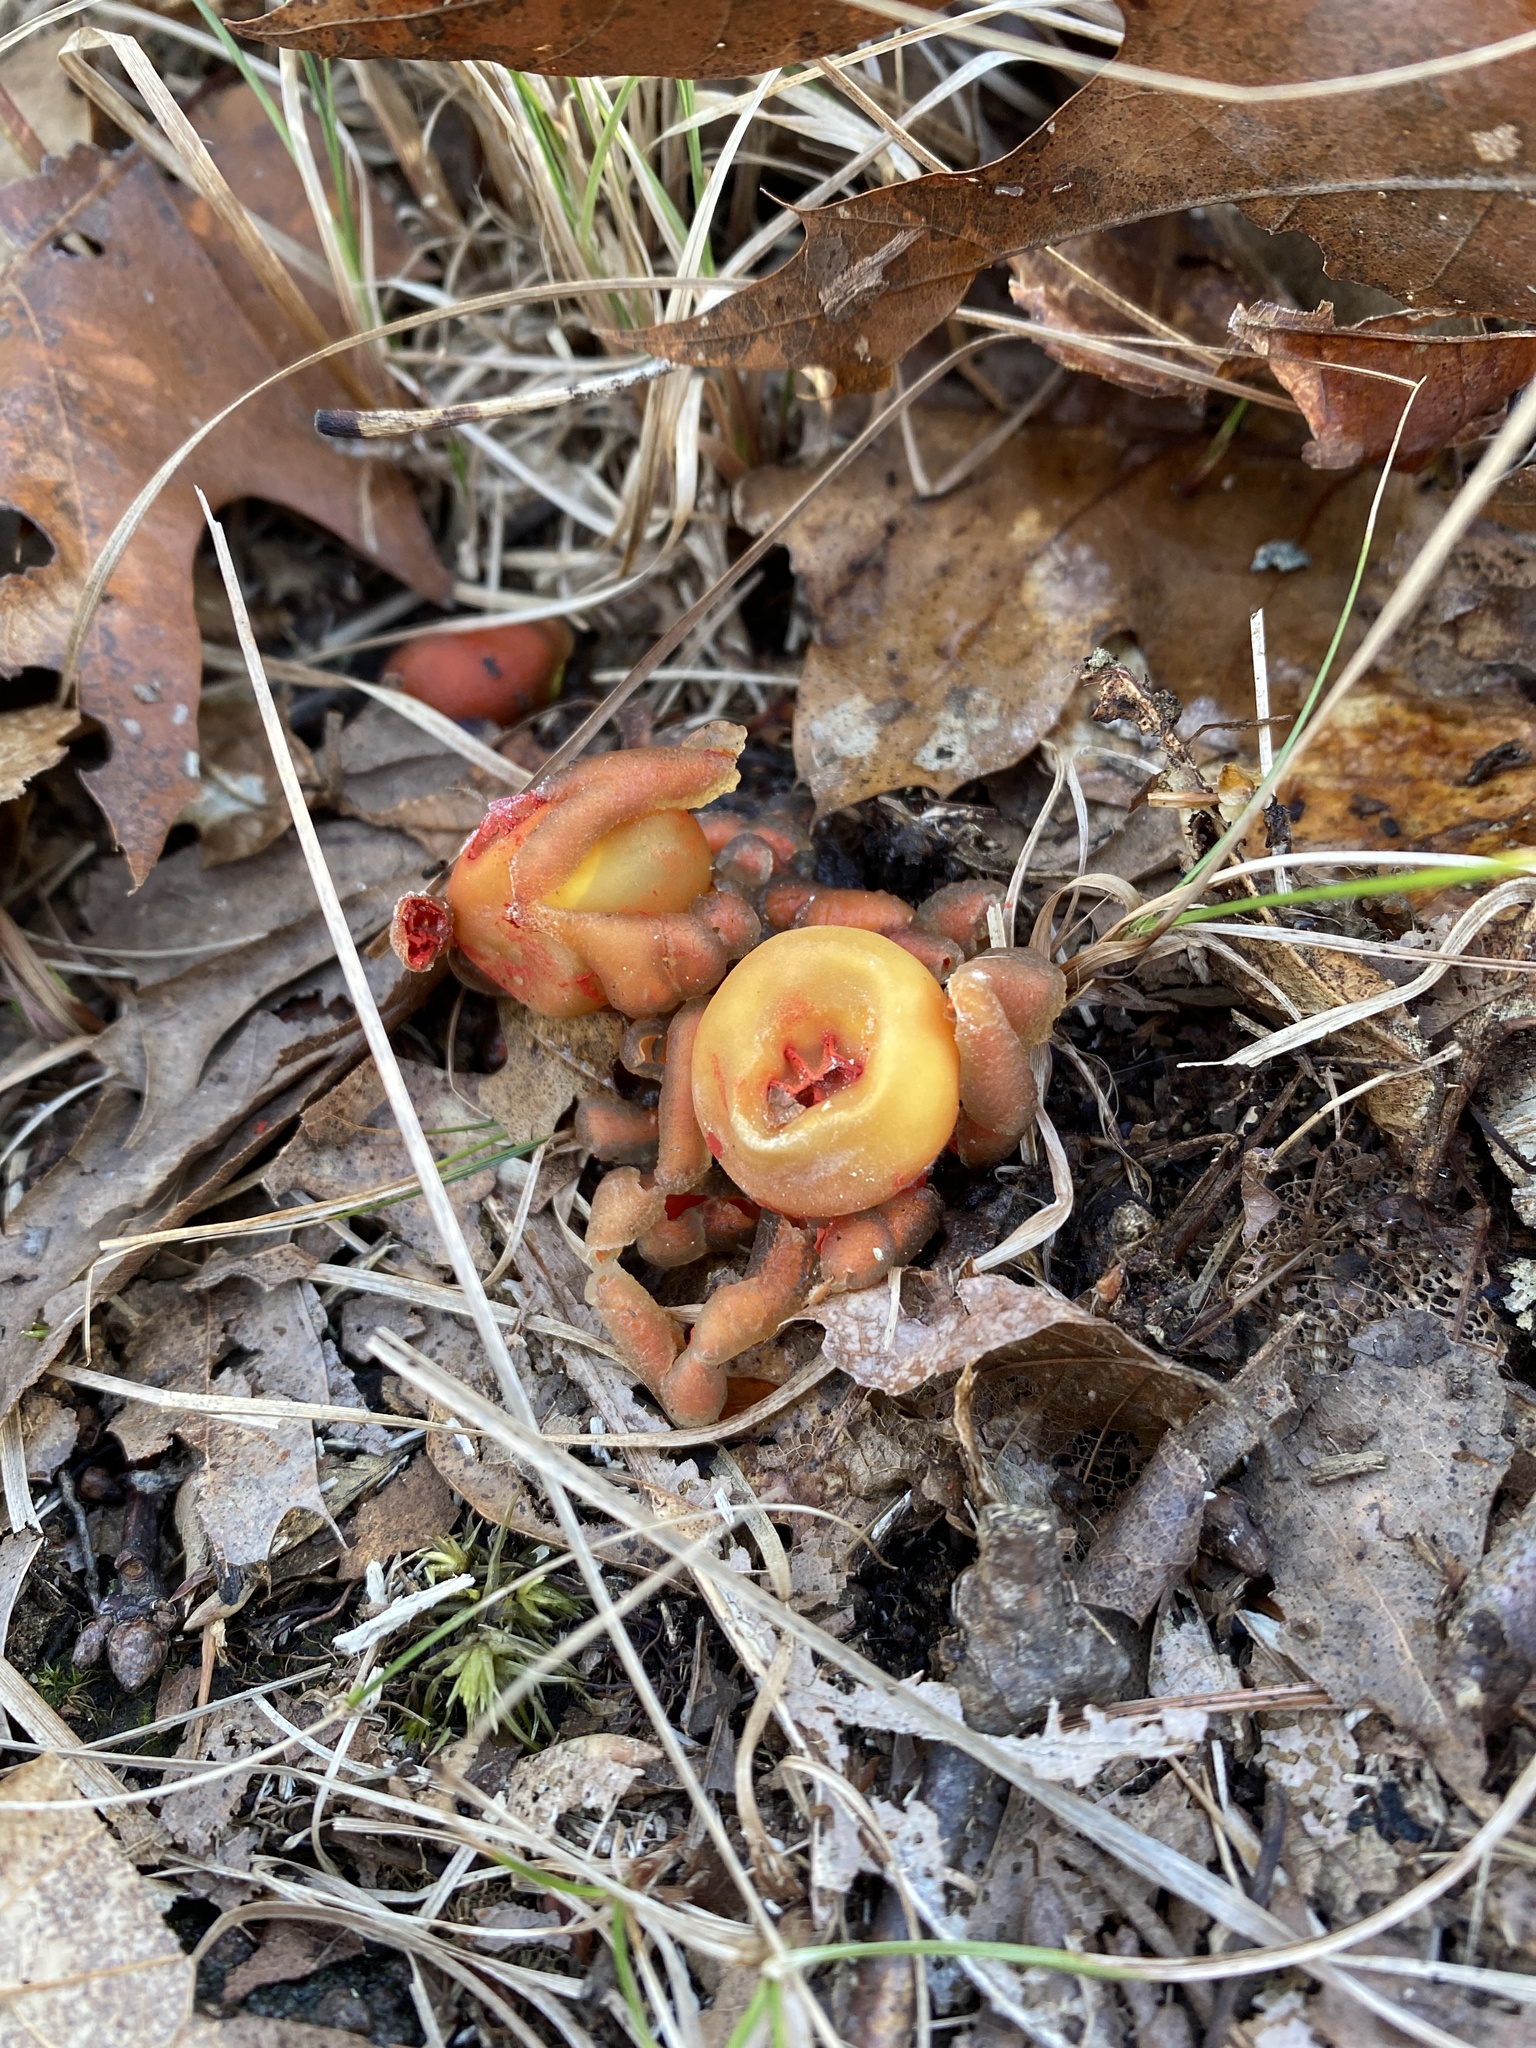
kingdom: Fungi
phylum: Basidiomycota
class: Agaricomycetes
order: Boletales
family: Calostomataceae
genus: Calostoma
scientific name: Calostoma cinnabarinum
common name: Stalked puffball-in-aspic
